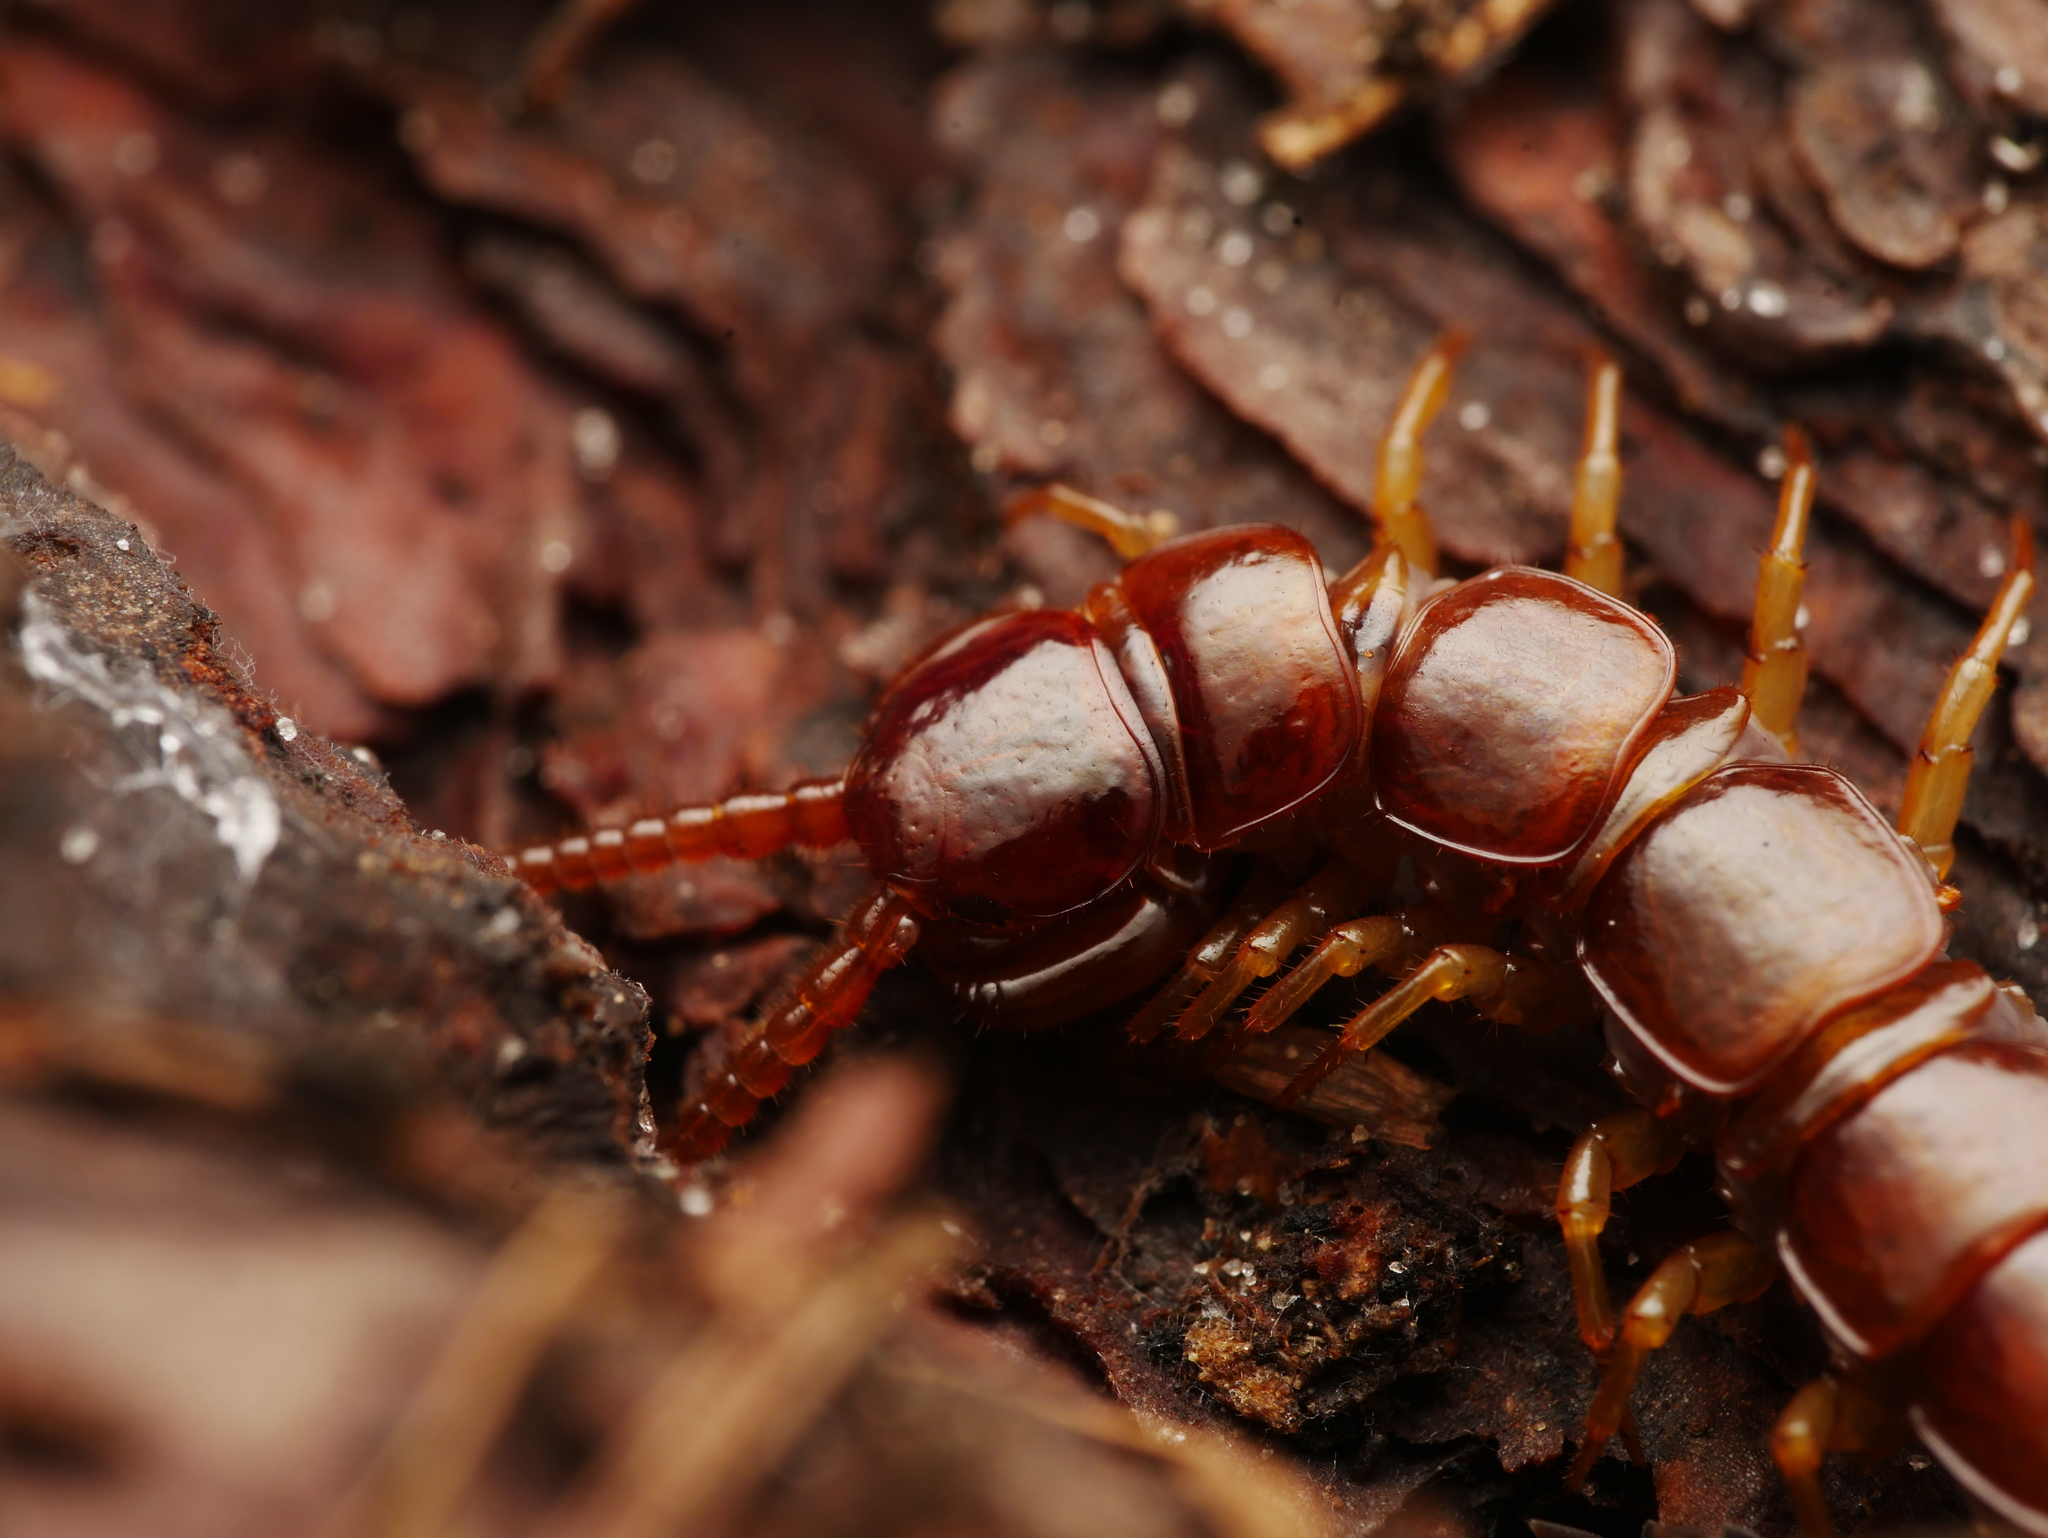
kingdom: Animalia
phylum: Arthropoda
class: Chilopoda
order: Lithobiomorpha
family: Lithobiidae
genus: Lithobius
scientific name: Lithobius forficatus
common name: Centipede
